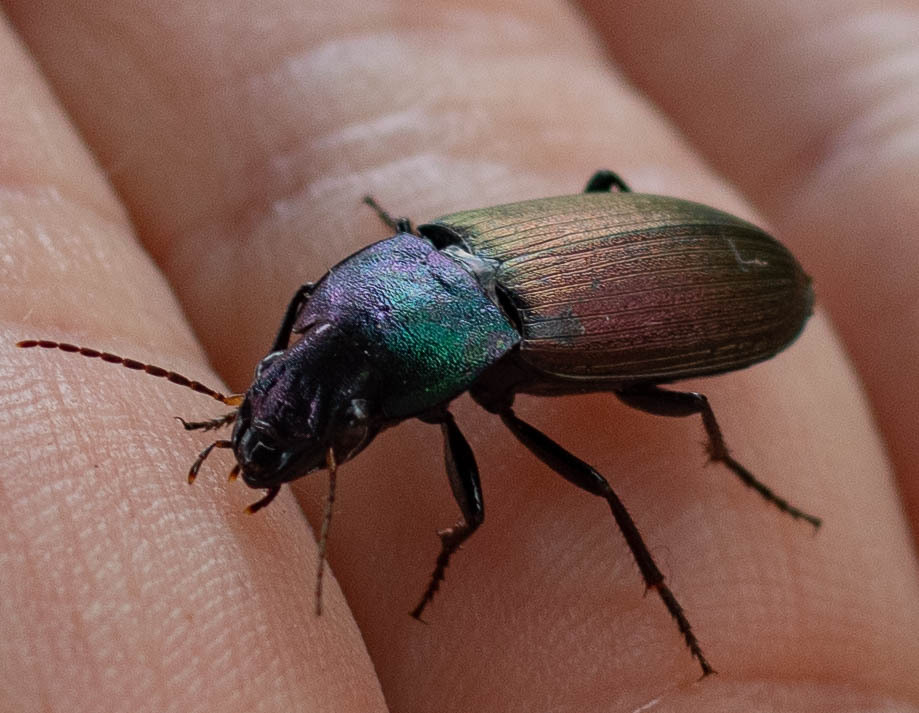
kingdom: Animalia
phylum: Arthropoda
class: Insecta
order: Coleoptera
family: Carabidae
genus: Neoaulacoryssus
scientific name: Neoaulacoryssus speciosus
